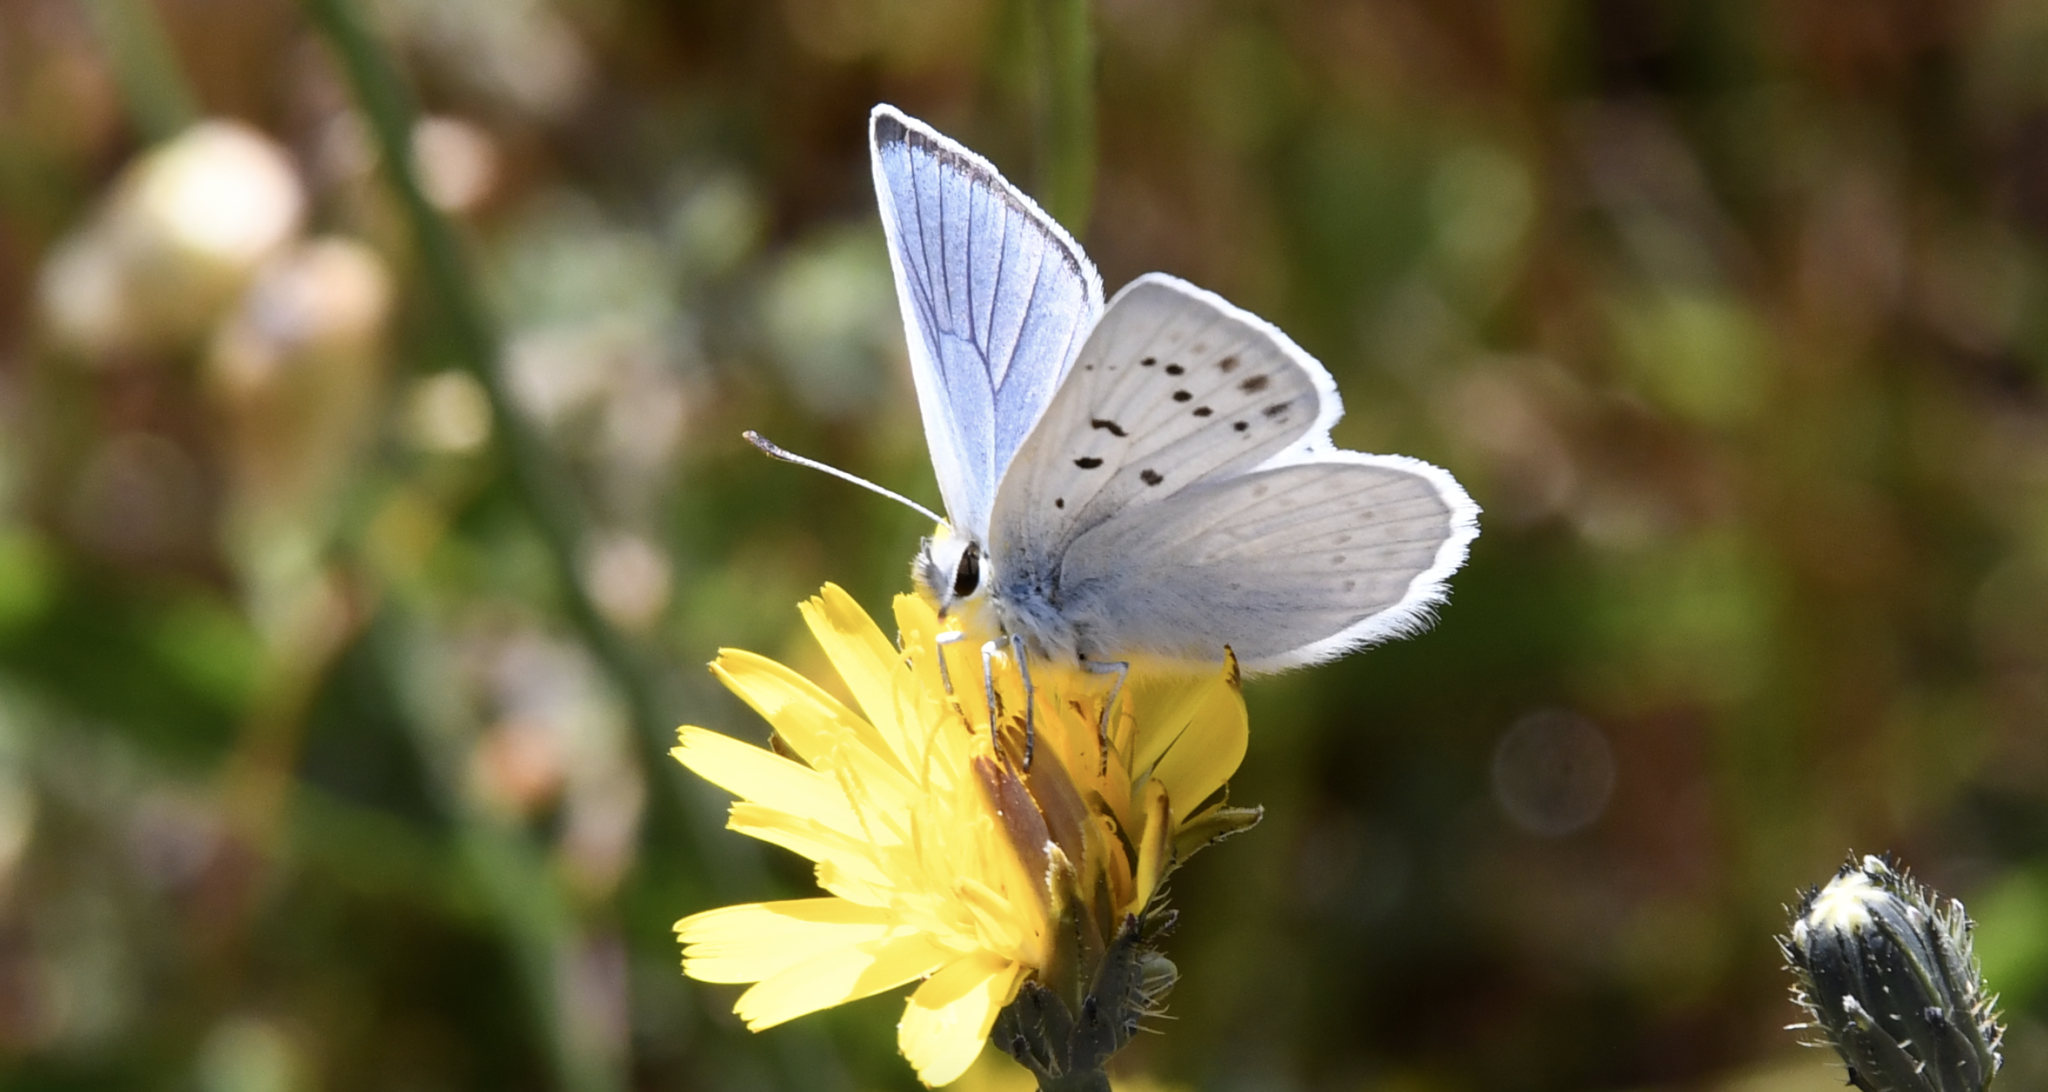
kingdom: Animalia
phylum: Arthropoda
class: Insecta
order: Lepidoptera
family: Lycaenidae
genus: Tharsalea
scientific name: Tharsalea heteronea
